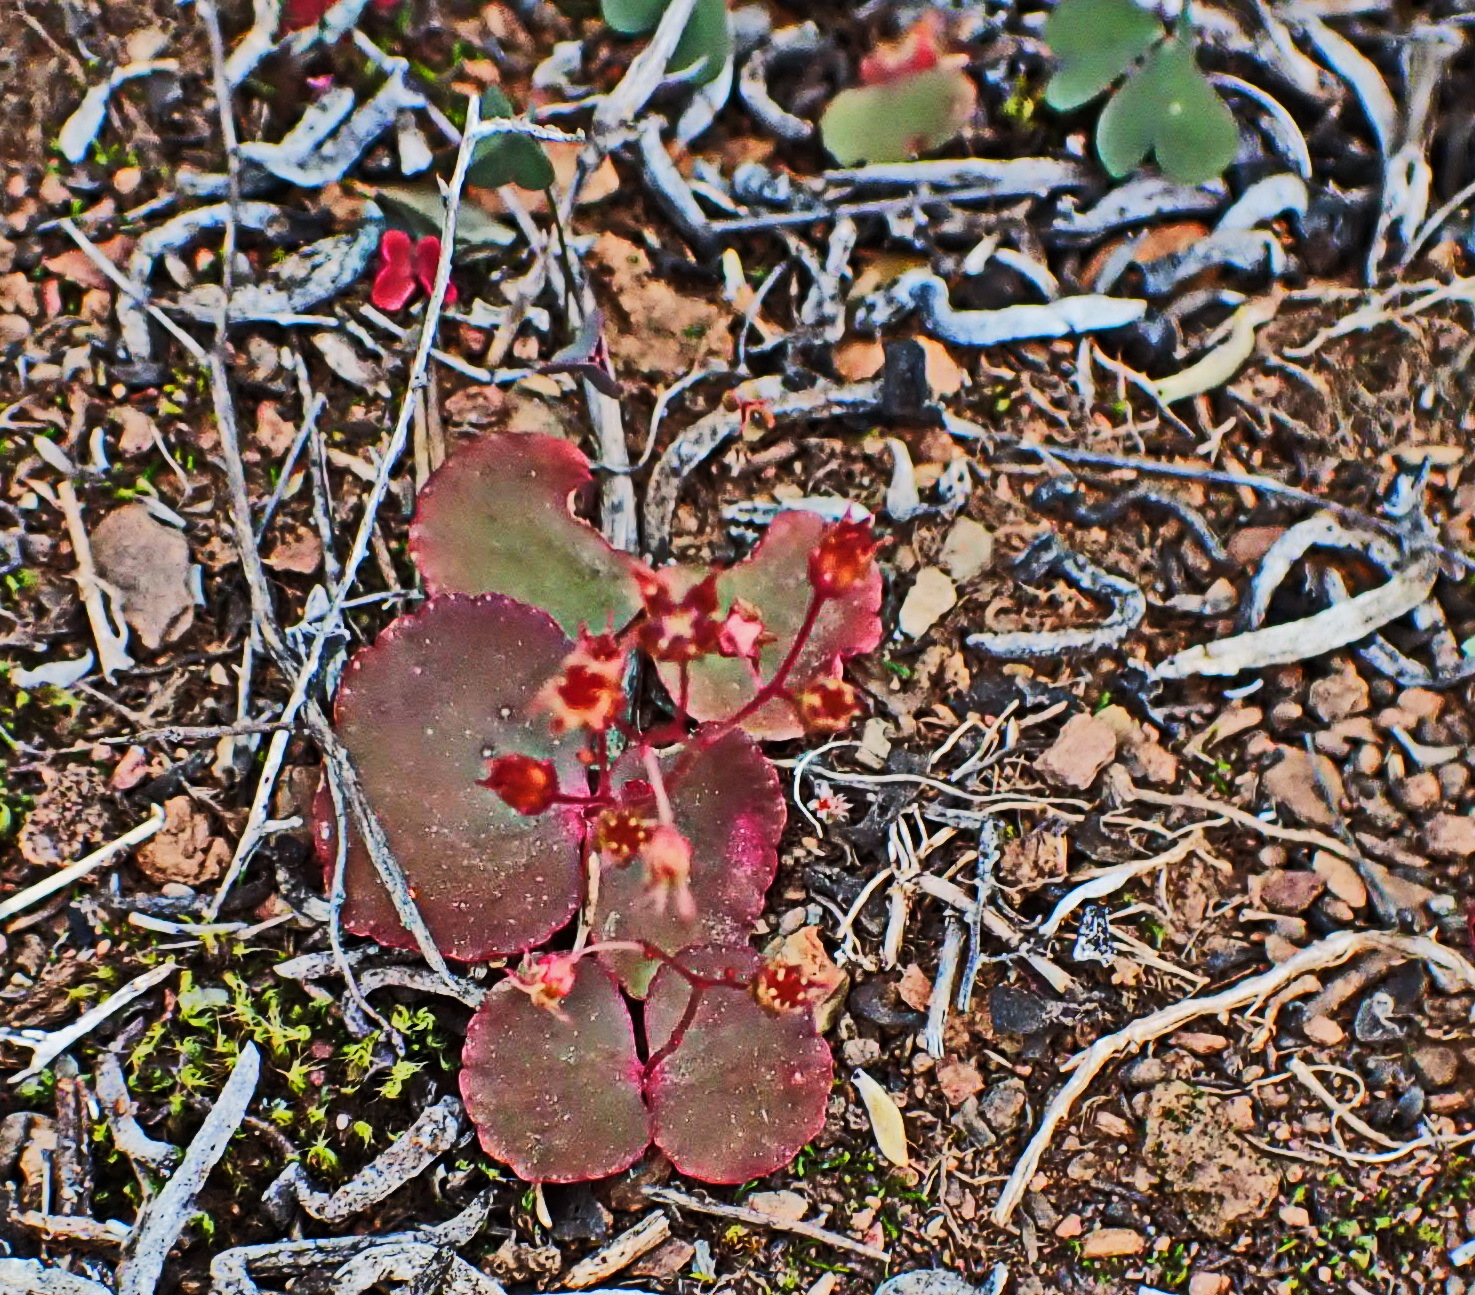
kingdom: Plantae
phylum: Tracheophyta
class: Magnoliopsida
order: Saxifragales
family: Crassulaceae
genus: Crassula
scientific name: Crassula umbella
